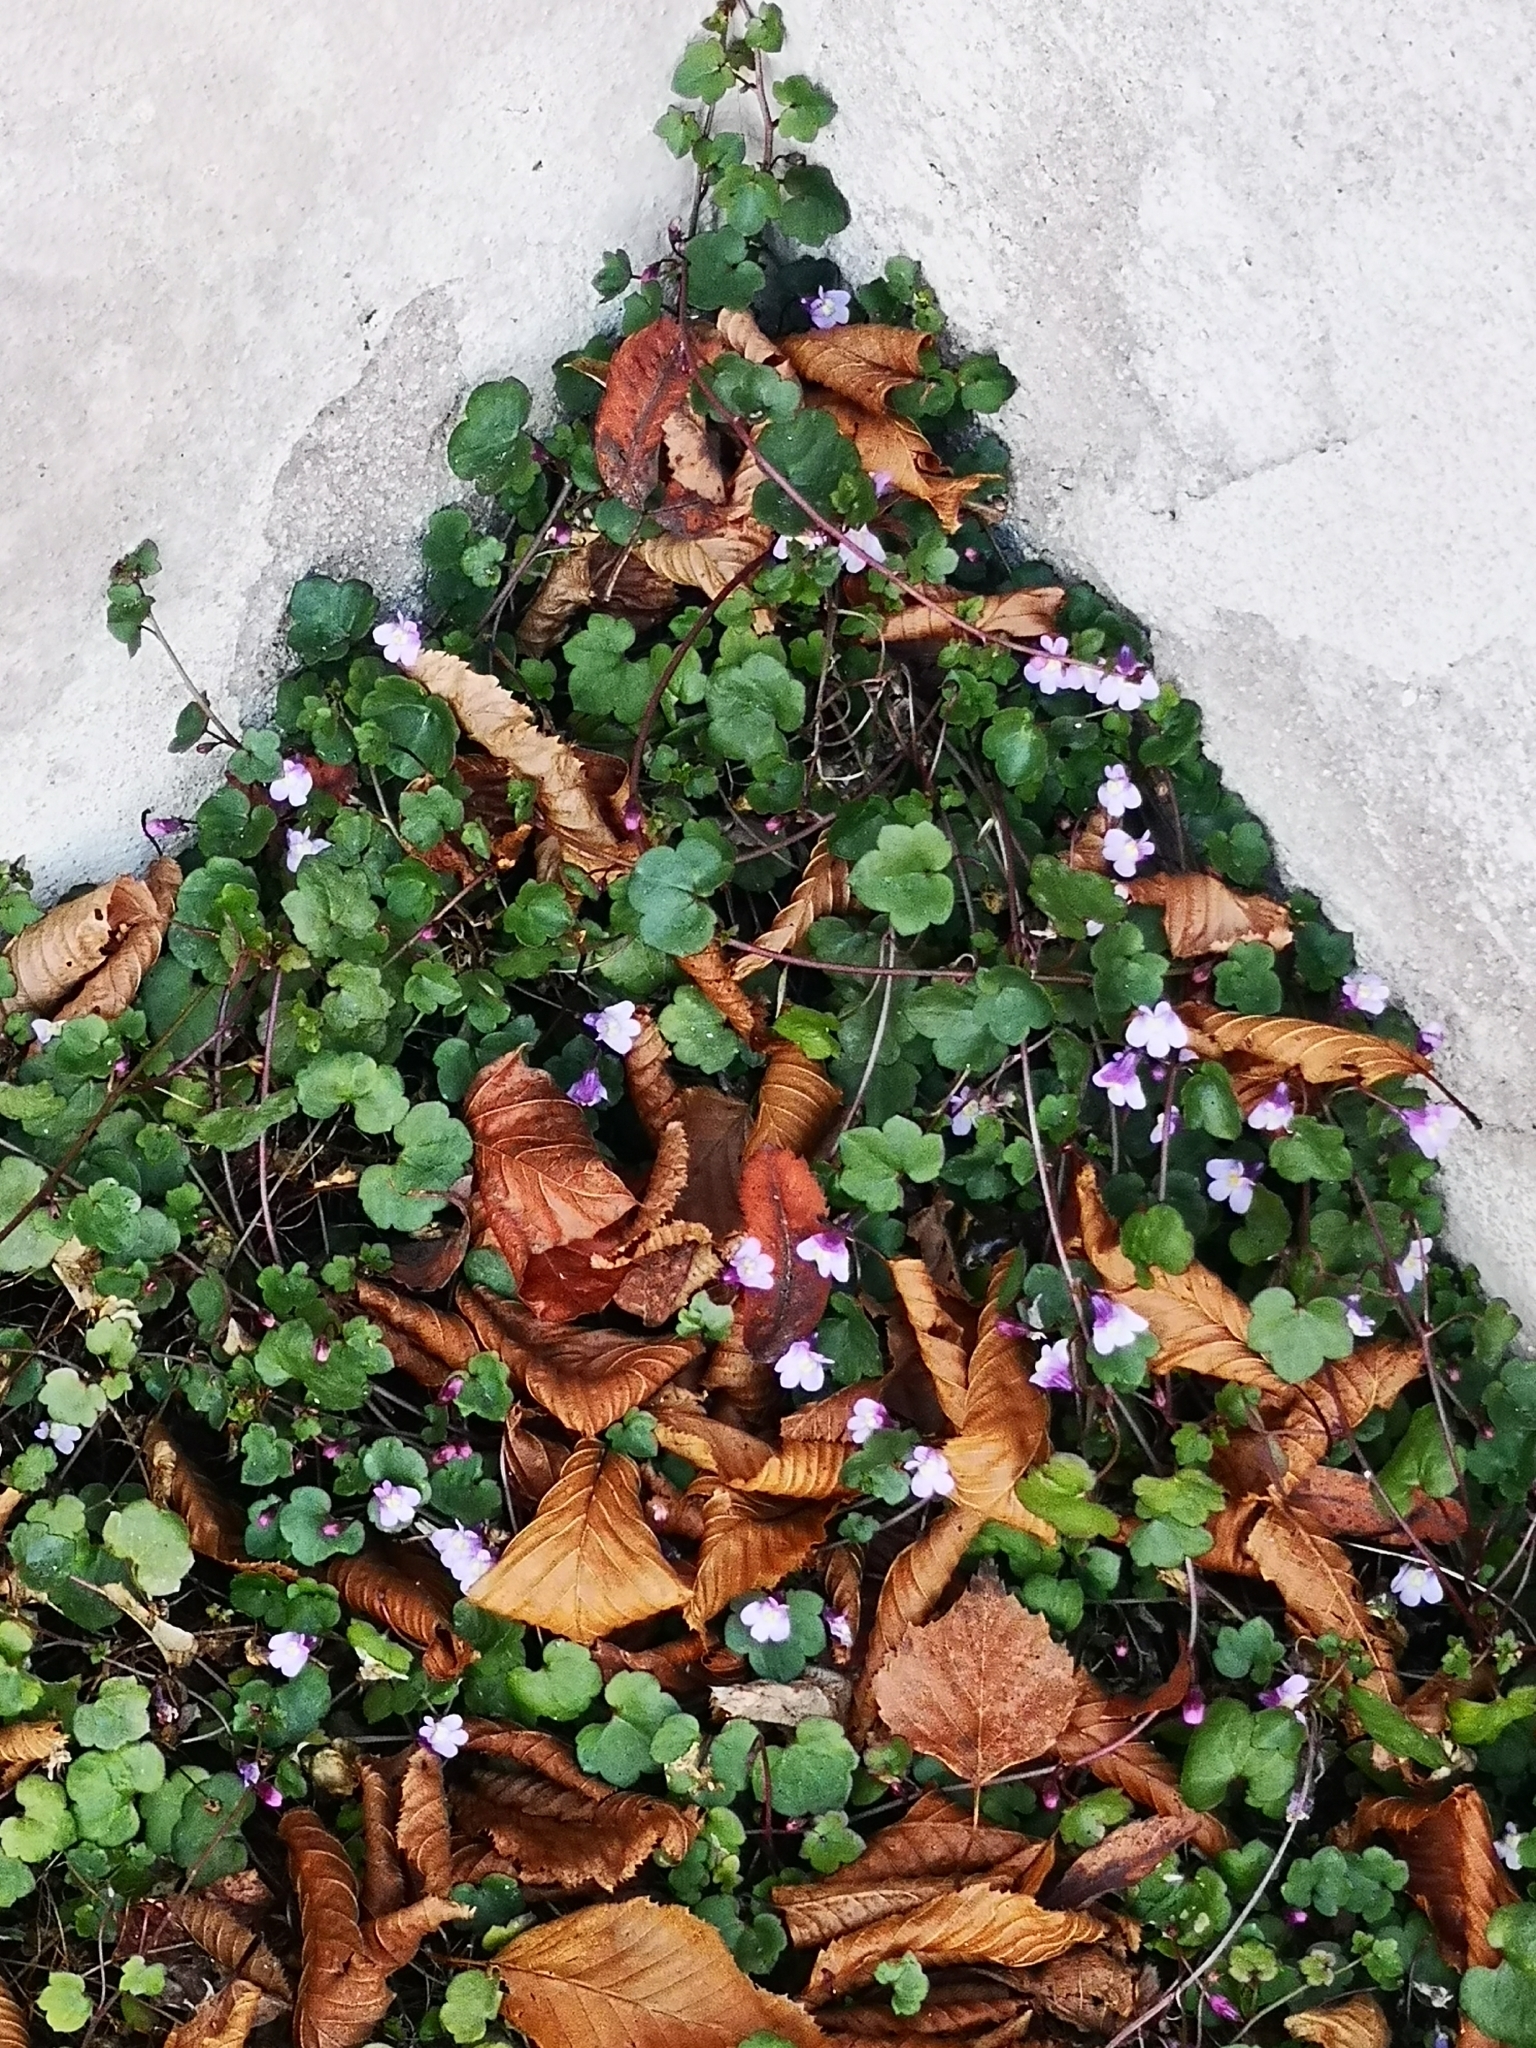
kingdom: Plantae
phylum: Tracheophyta
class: Magnoliopsida
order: Lamiales
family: Plantaginaceae
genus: Cymbalaria
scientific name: Cymbalaria muralis
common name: Ivy-leaved toadflax
